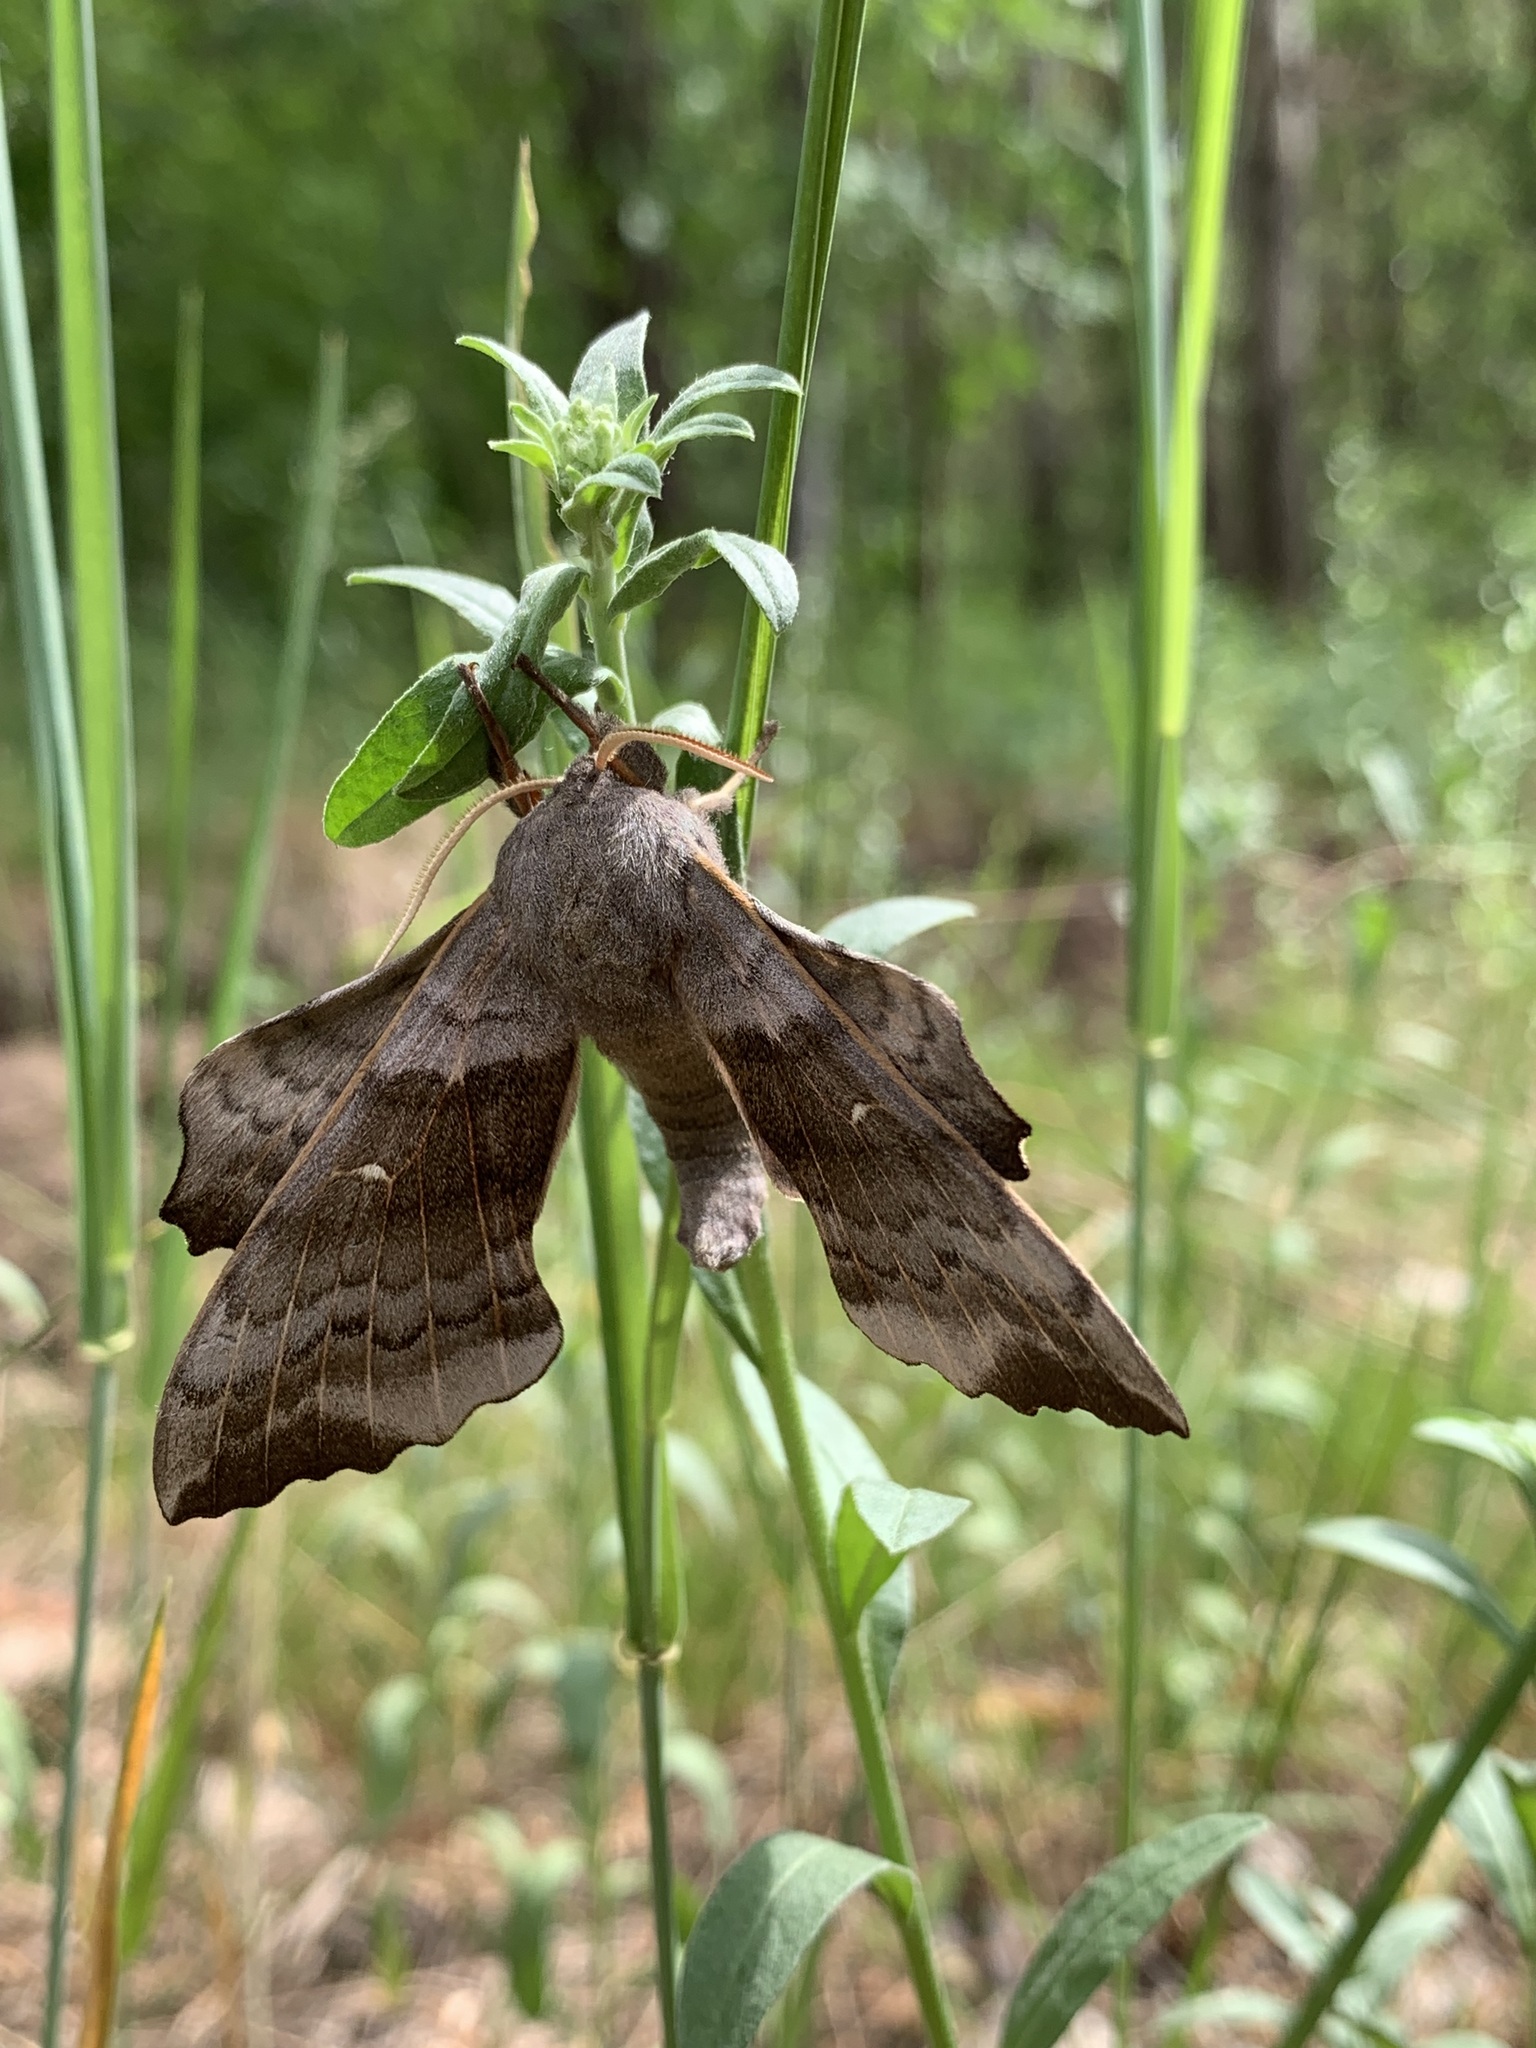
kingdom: Animalia
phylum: Arthropoda
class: Insecta
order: Lepidoptera
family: Sphingidae
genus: Laothoe
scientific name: Laothoe populi
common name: Poplar hawk-moth
